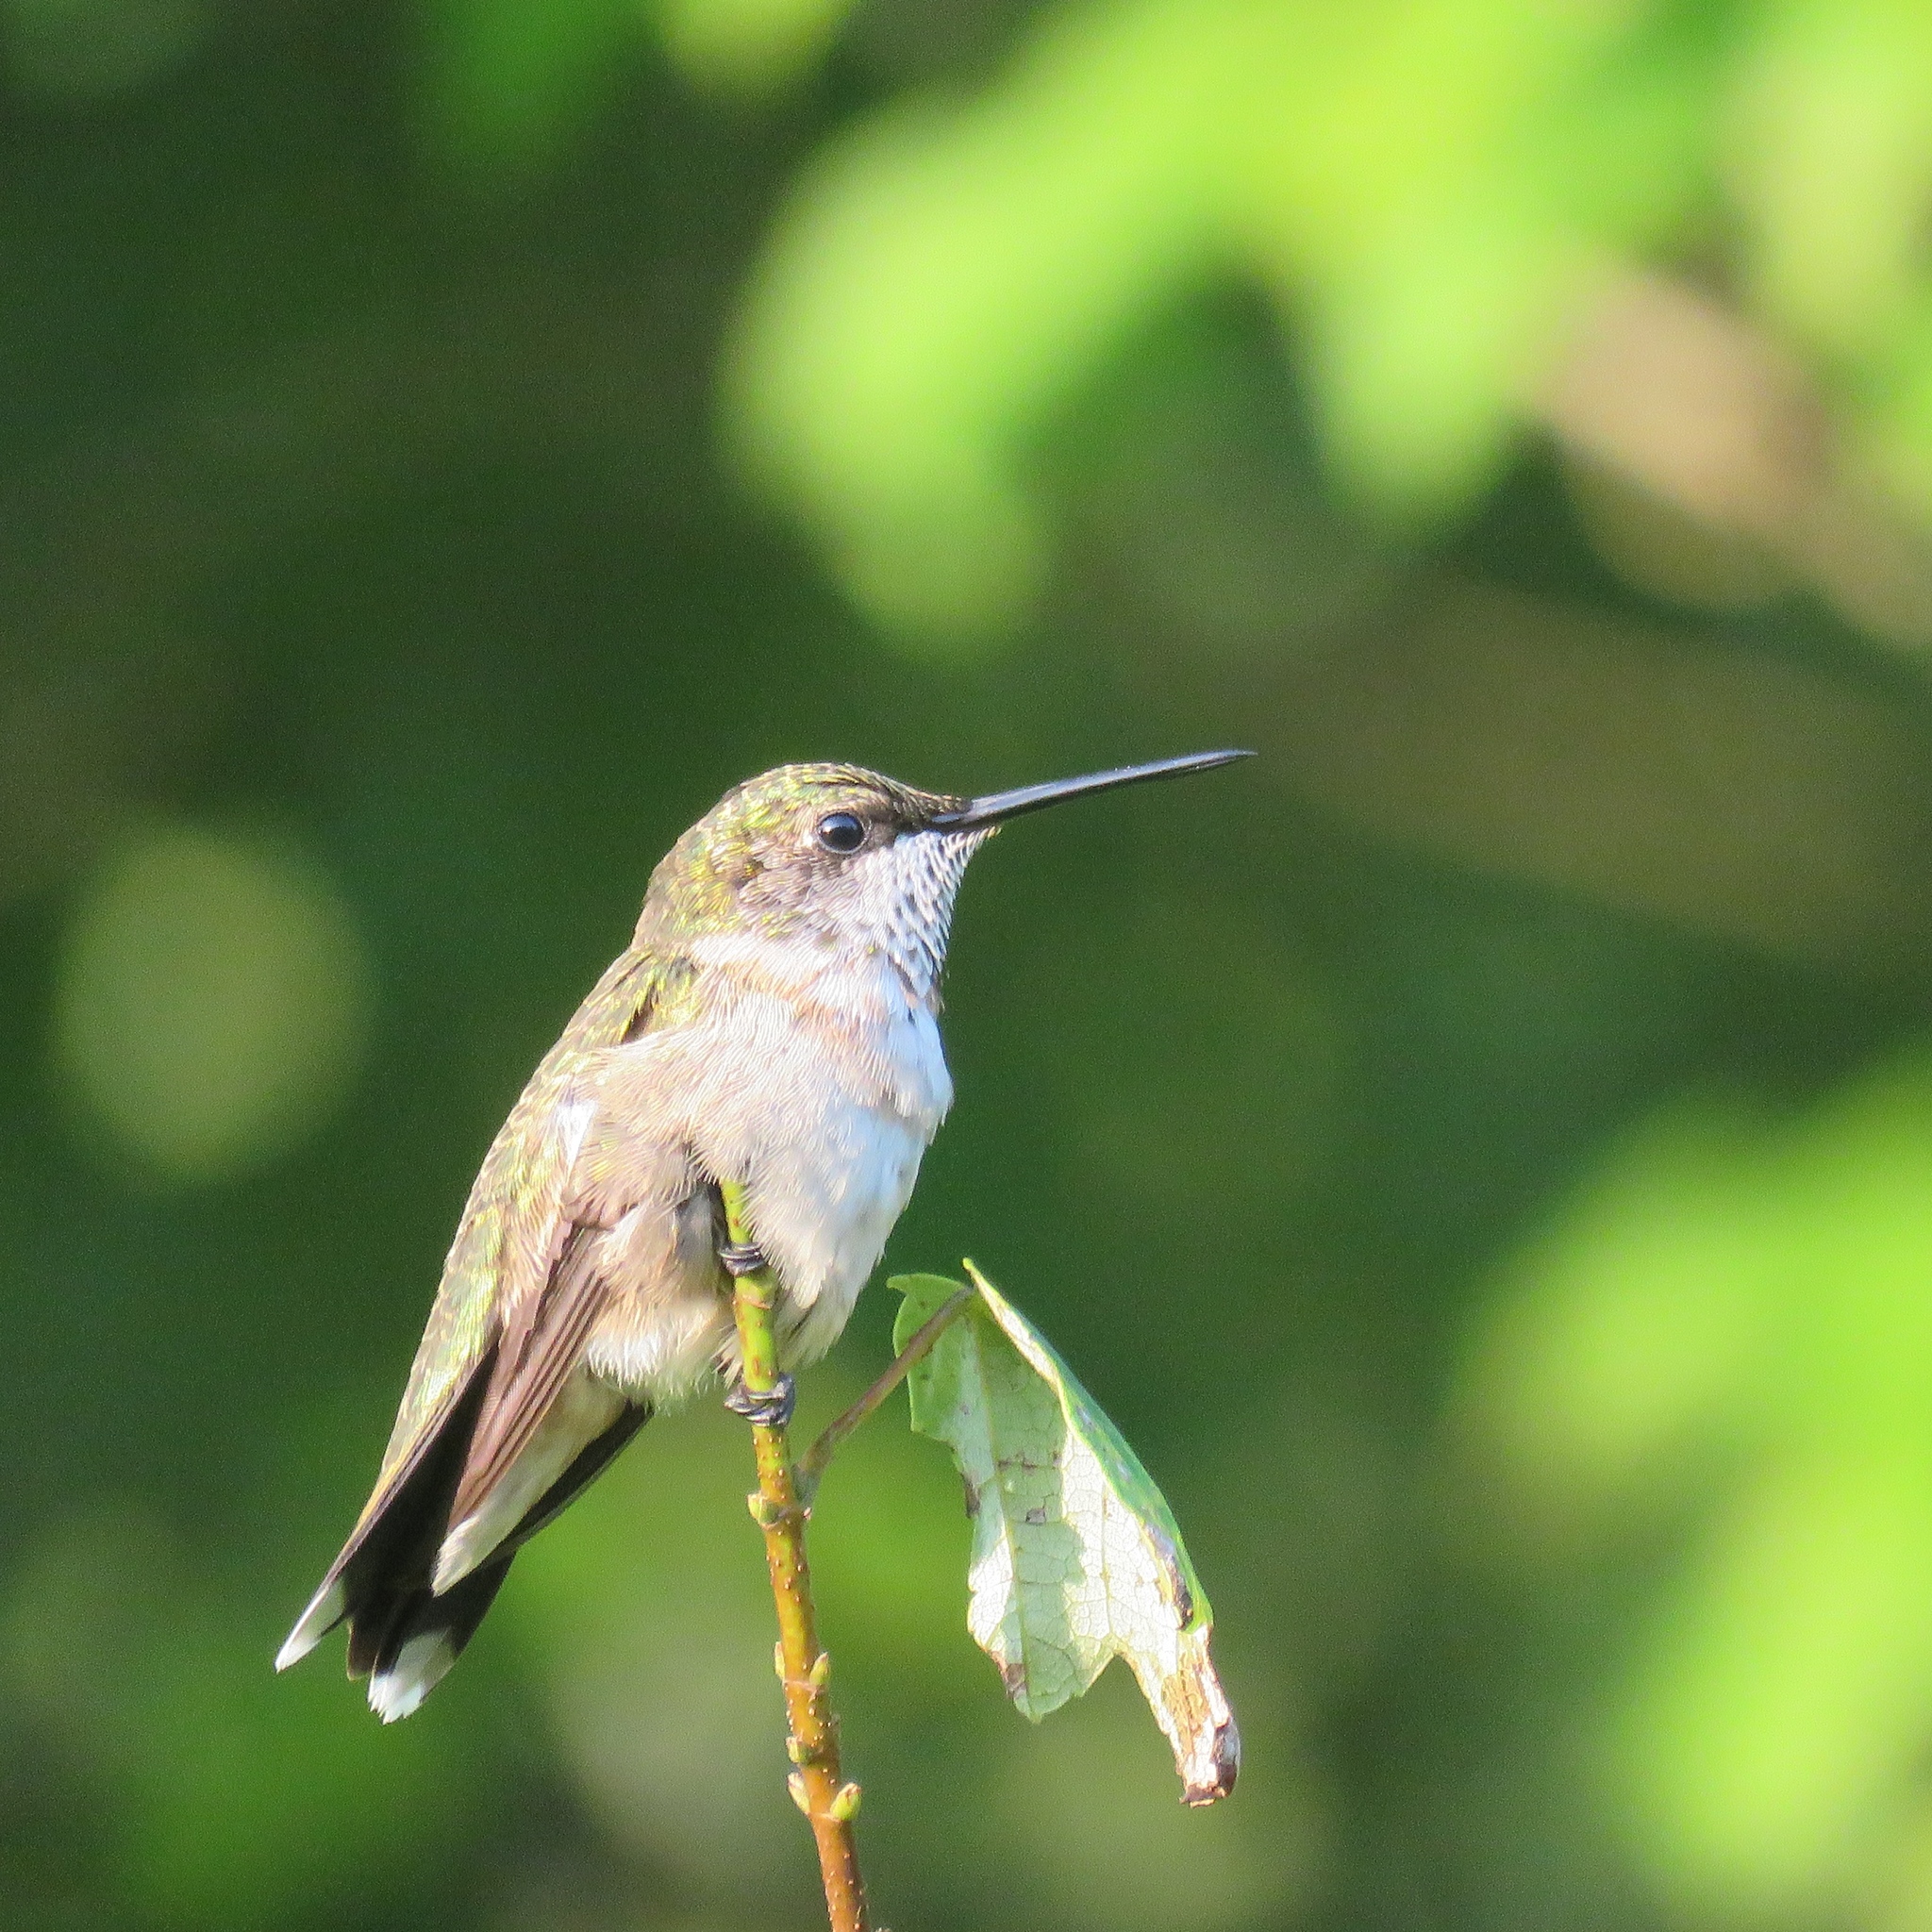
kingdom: Animalia
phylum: Chordata
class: Aves
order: Apodiformes
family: Trochilidae
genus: Archilochus
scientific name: Archilochus colubris
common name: Ruby-throated hummingbird
